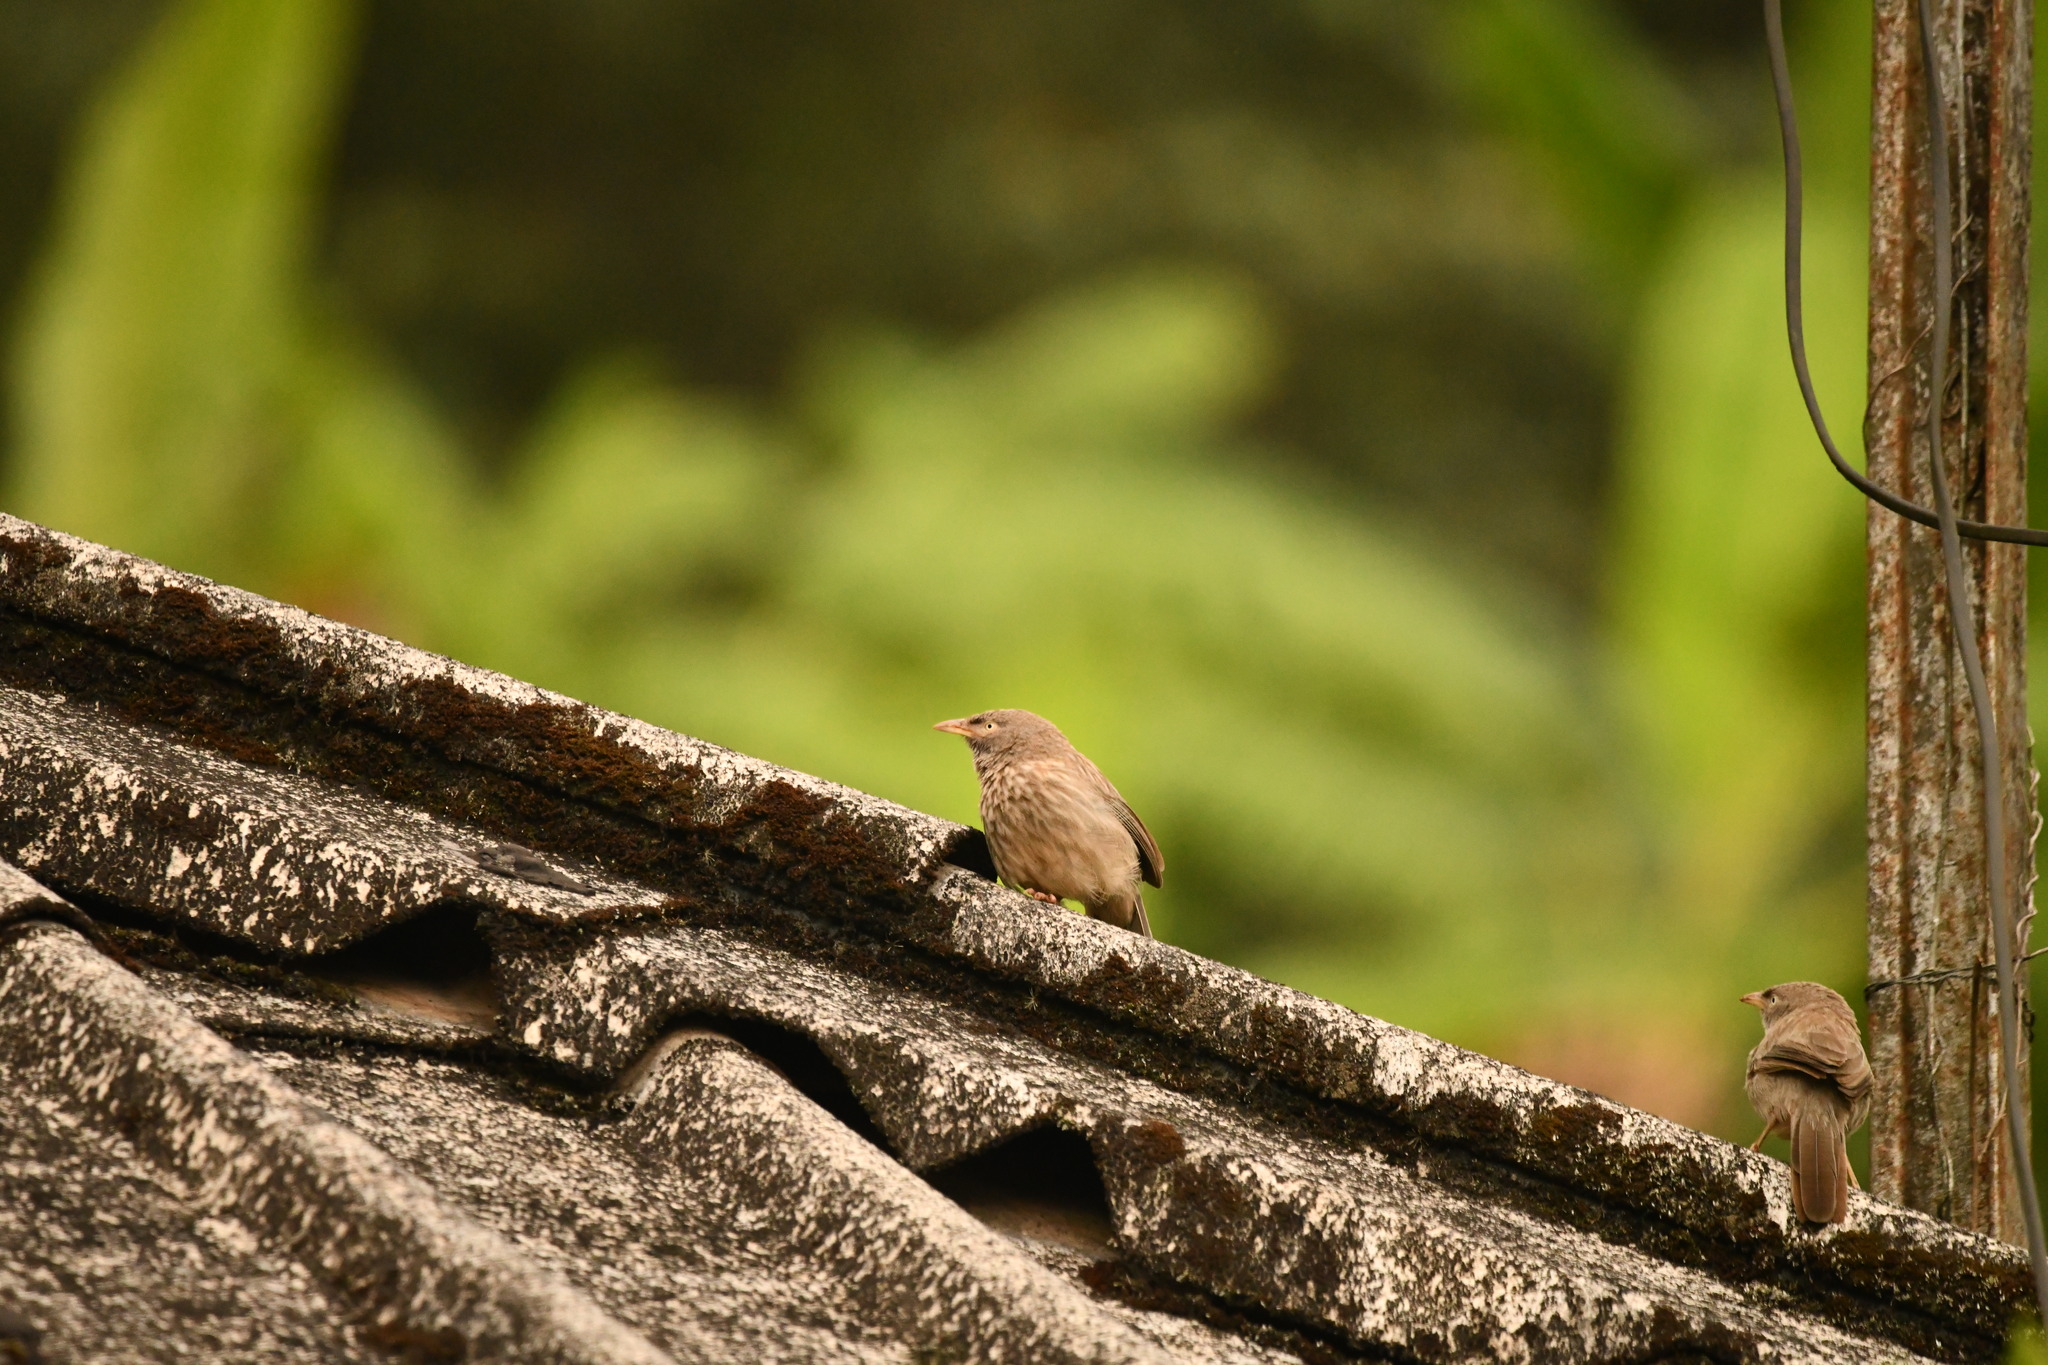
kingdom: Animalia
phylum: Chordata
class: Aves
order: Passeriformes
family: Leiothrichidae
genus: Turdoides
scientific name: Turdoides striata
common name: Jungle babbler
